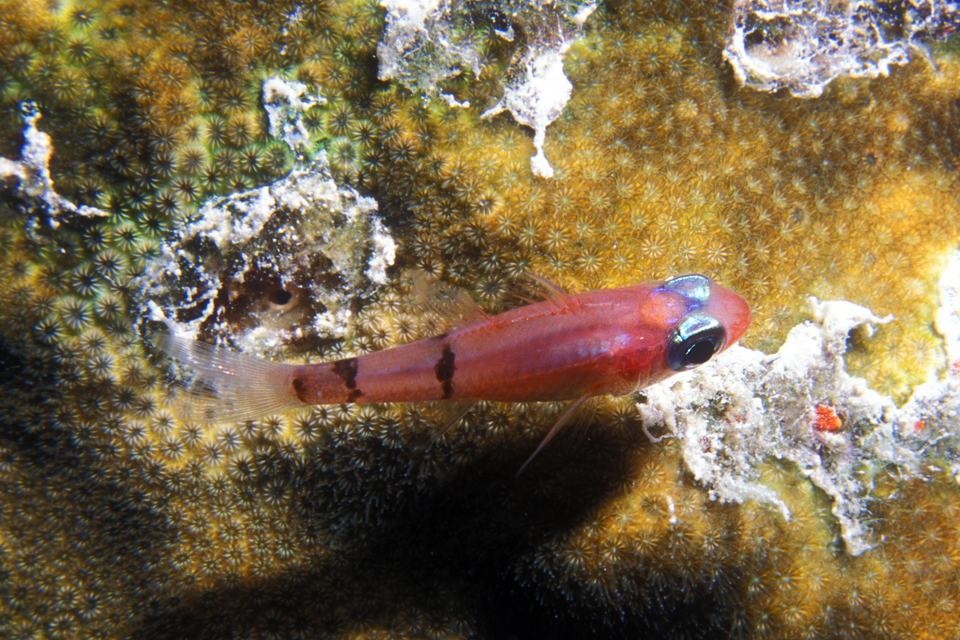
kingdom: Animalia
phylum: Chordata
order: Perciformes
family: Apogonidae
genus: Apogon
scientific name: Apogon townsendi
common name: Belted cardinalfish
